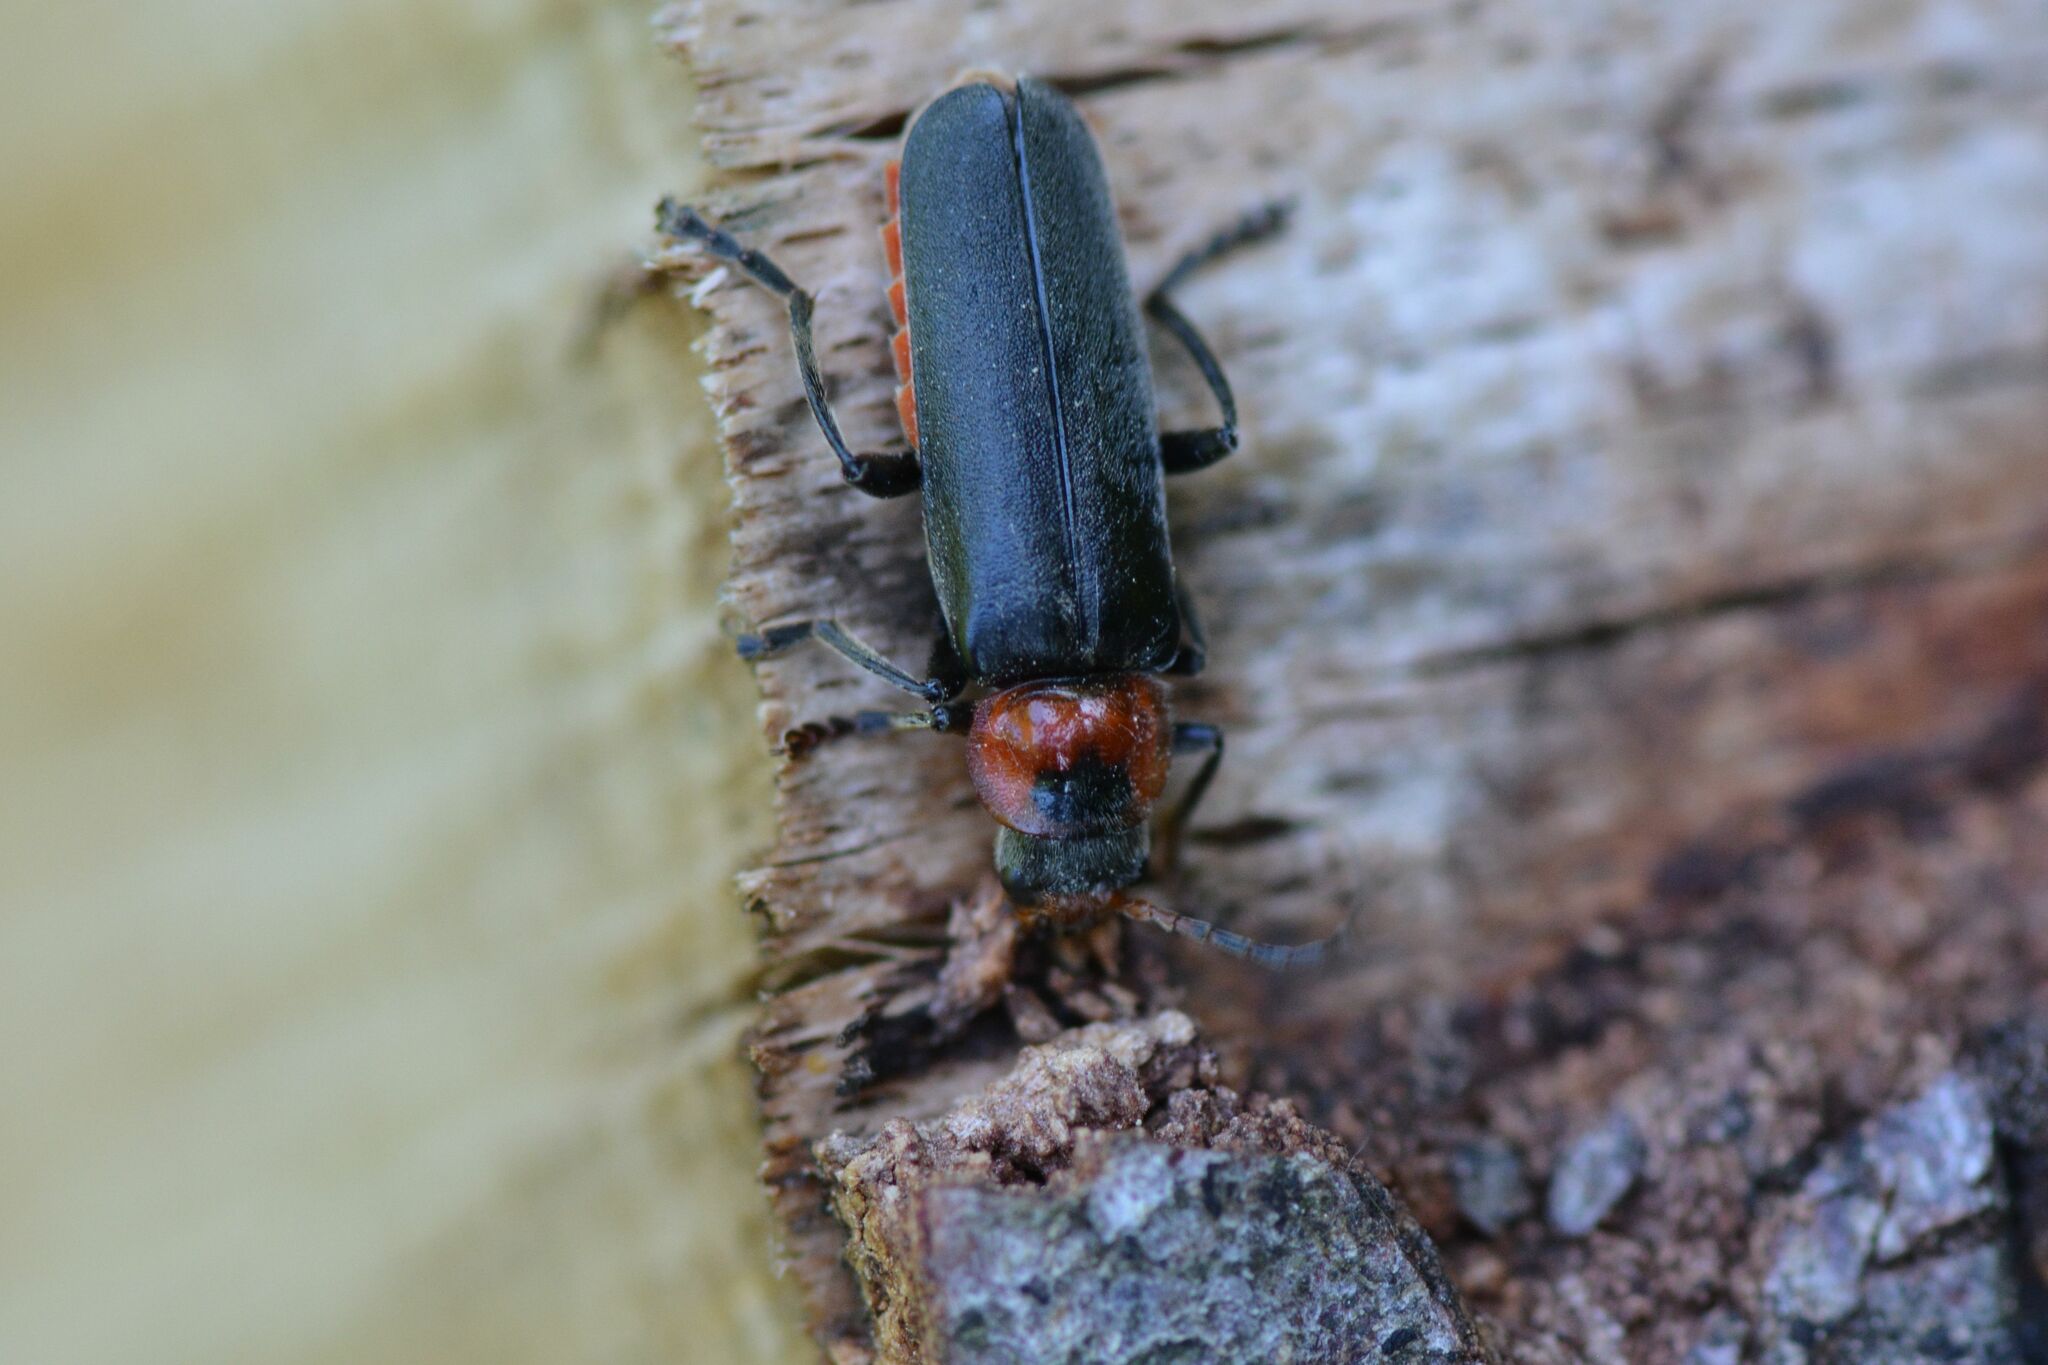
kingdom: Animalia
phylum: Arthropoda
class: Insecta
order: Coleoptera
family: Cantharidae
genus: Cantharis
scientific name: Cantharis fusca
